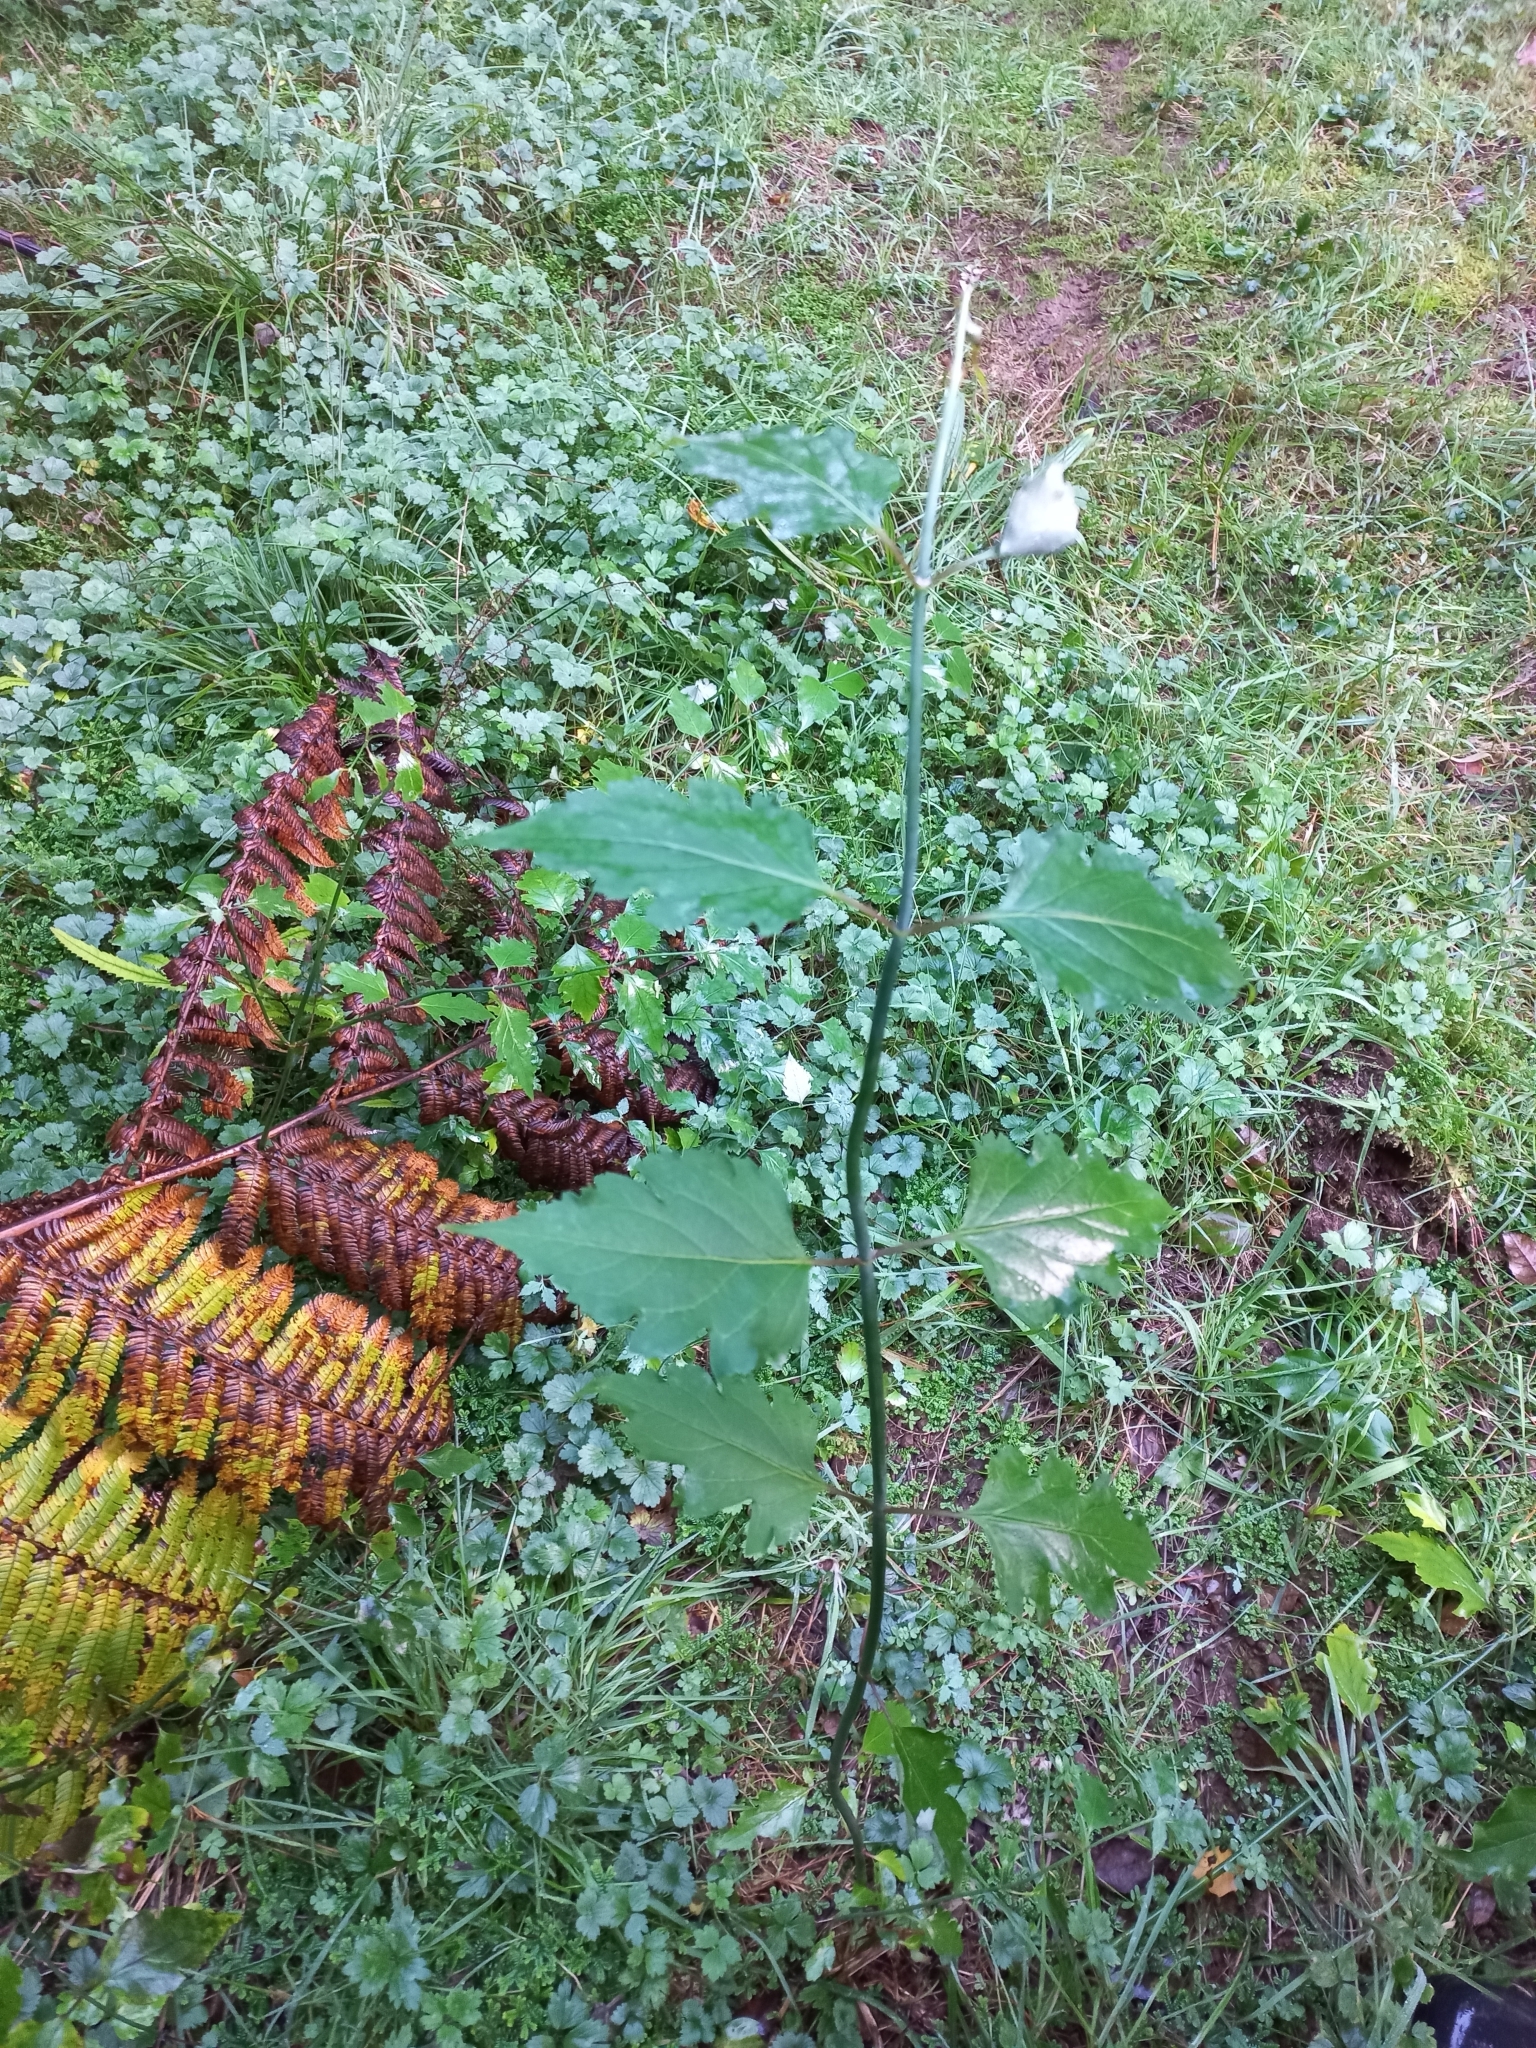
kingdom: Plantae
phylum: Tracheophyta
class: Magnoliopsida
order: Dipsacales
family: Caprifoliaceae
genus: Leycesteria
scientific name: Leycesteria formosa
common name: Himalayan honeysuckle
